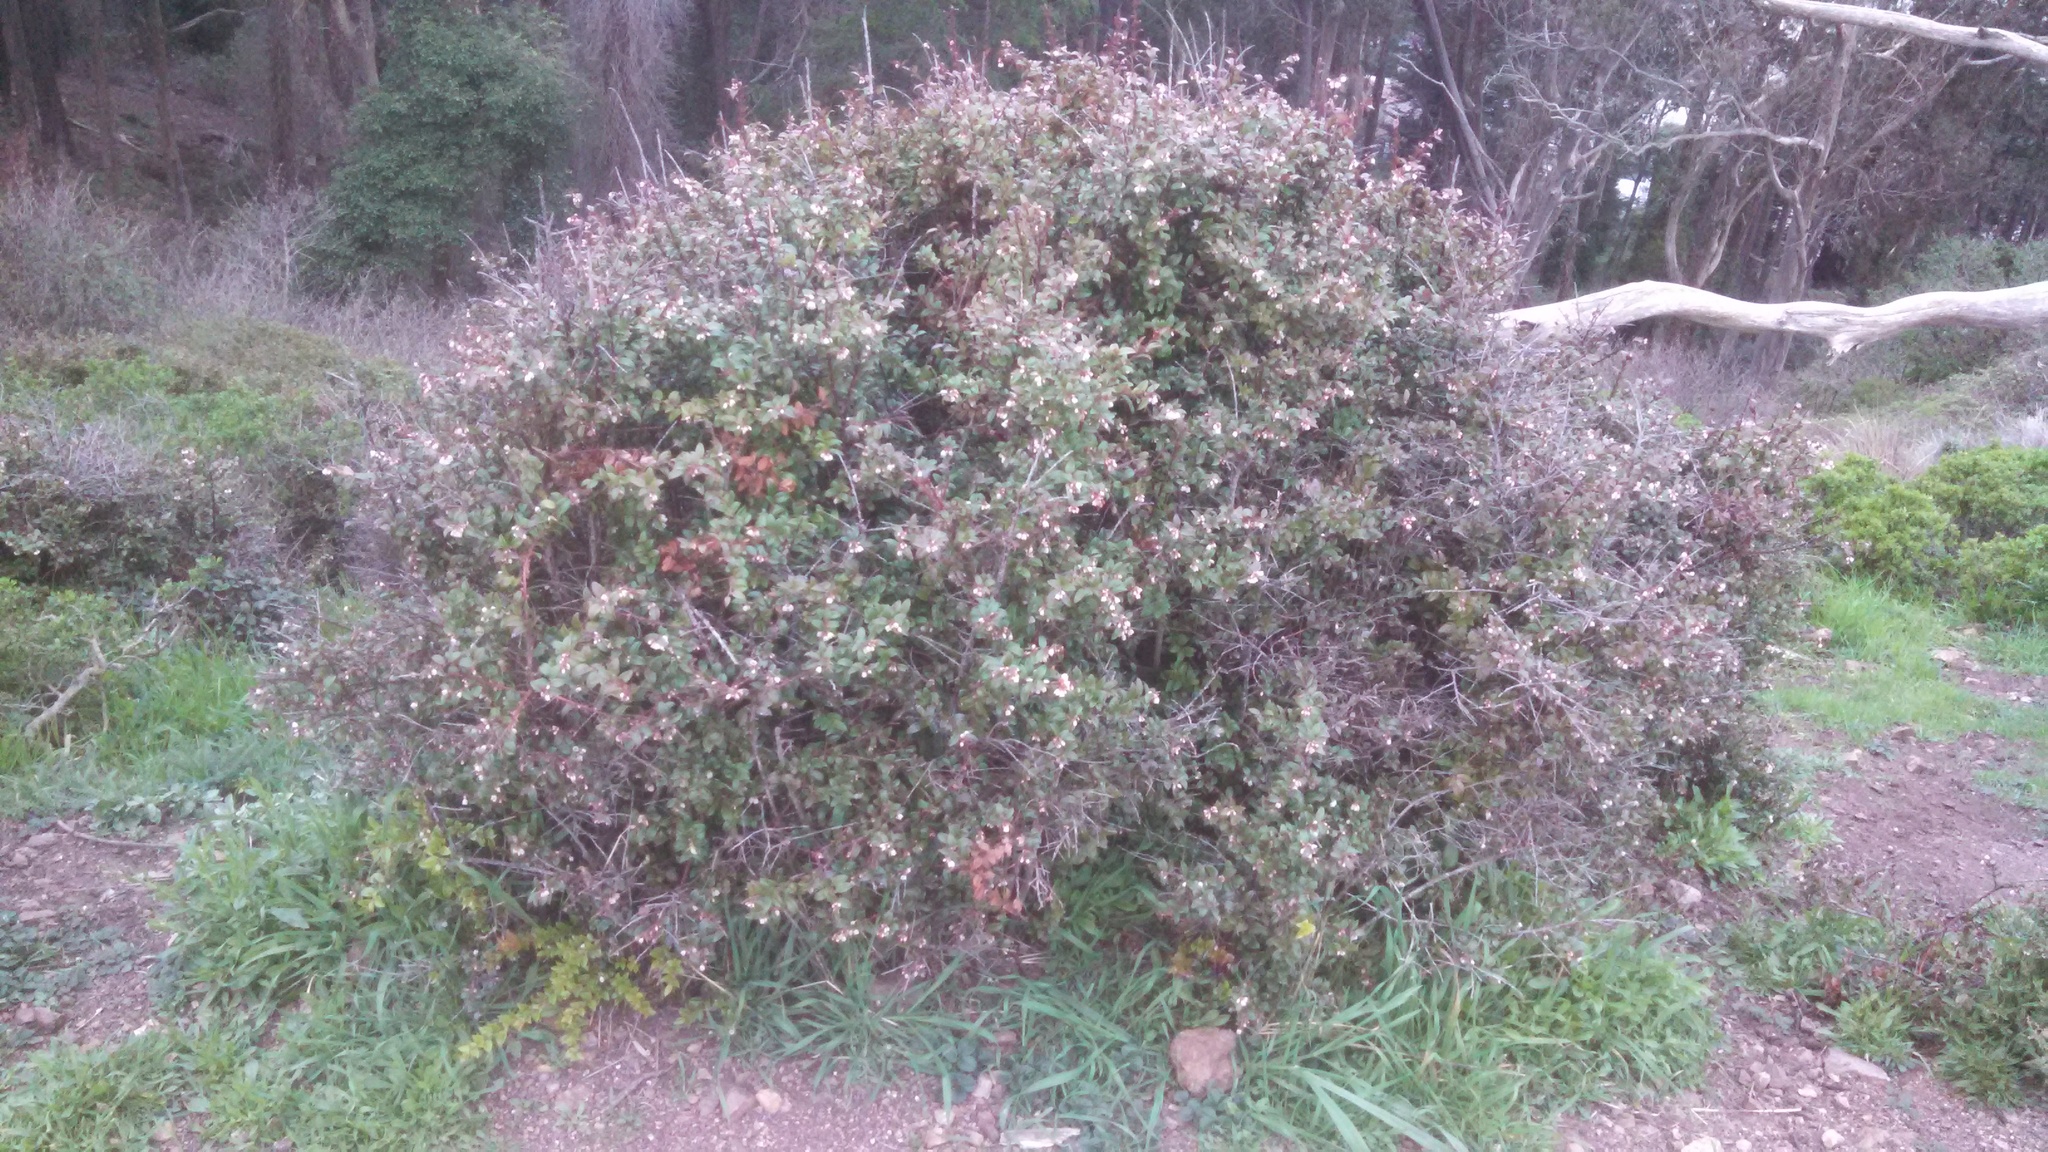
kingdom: Plantae
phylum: Tracheophyta
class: Magnoliopsida
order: Ericales
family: Ericaceae
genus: Vaccinium
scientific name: Vaccinium ovatum
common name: California-huckleberry
